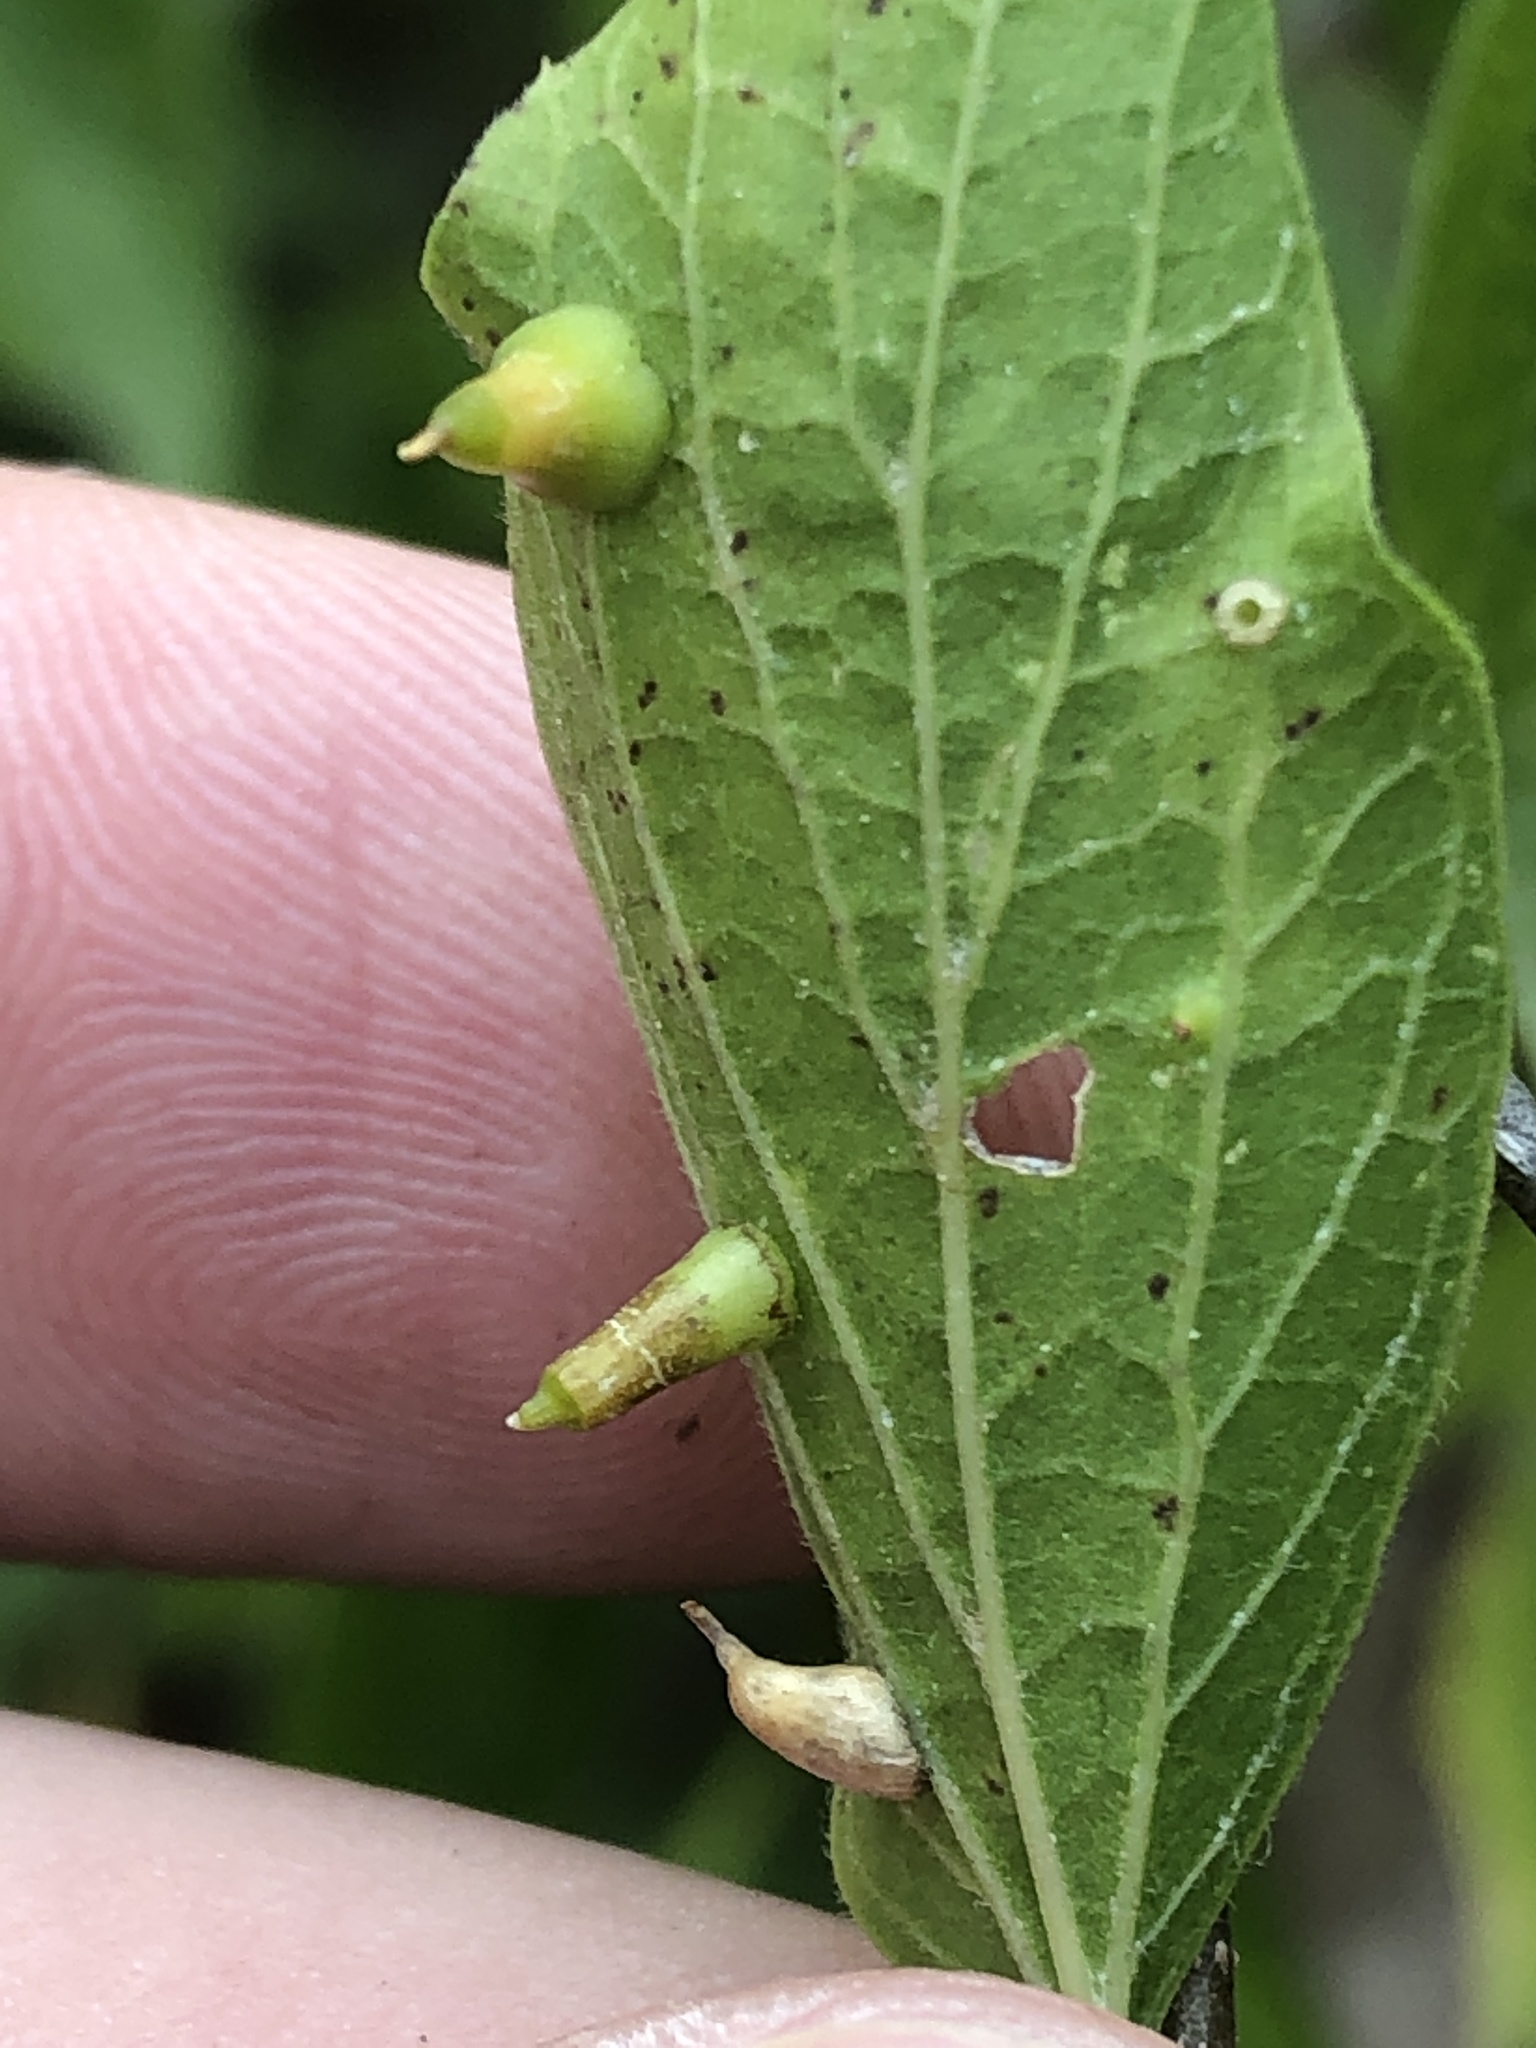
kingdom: Animalia
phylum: Arthropoda
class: Insecta
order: Diptera
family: Cecidomyiidae
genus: Celticecis
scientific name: Celticecis spiniformis
